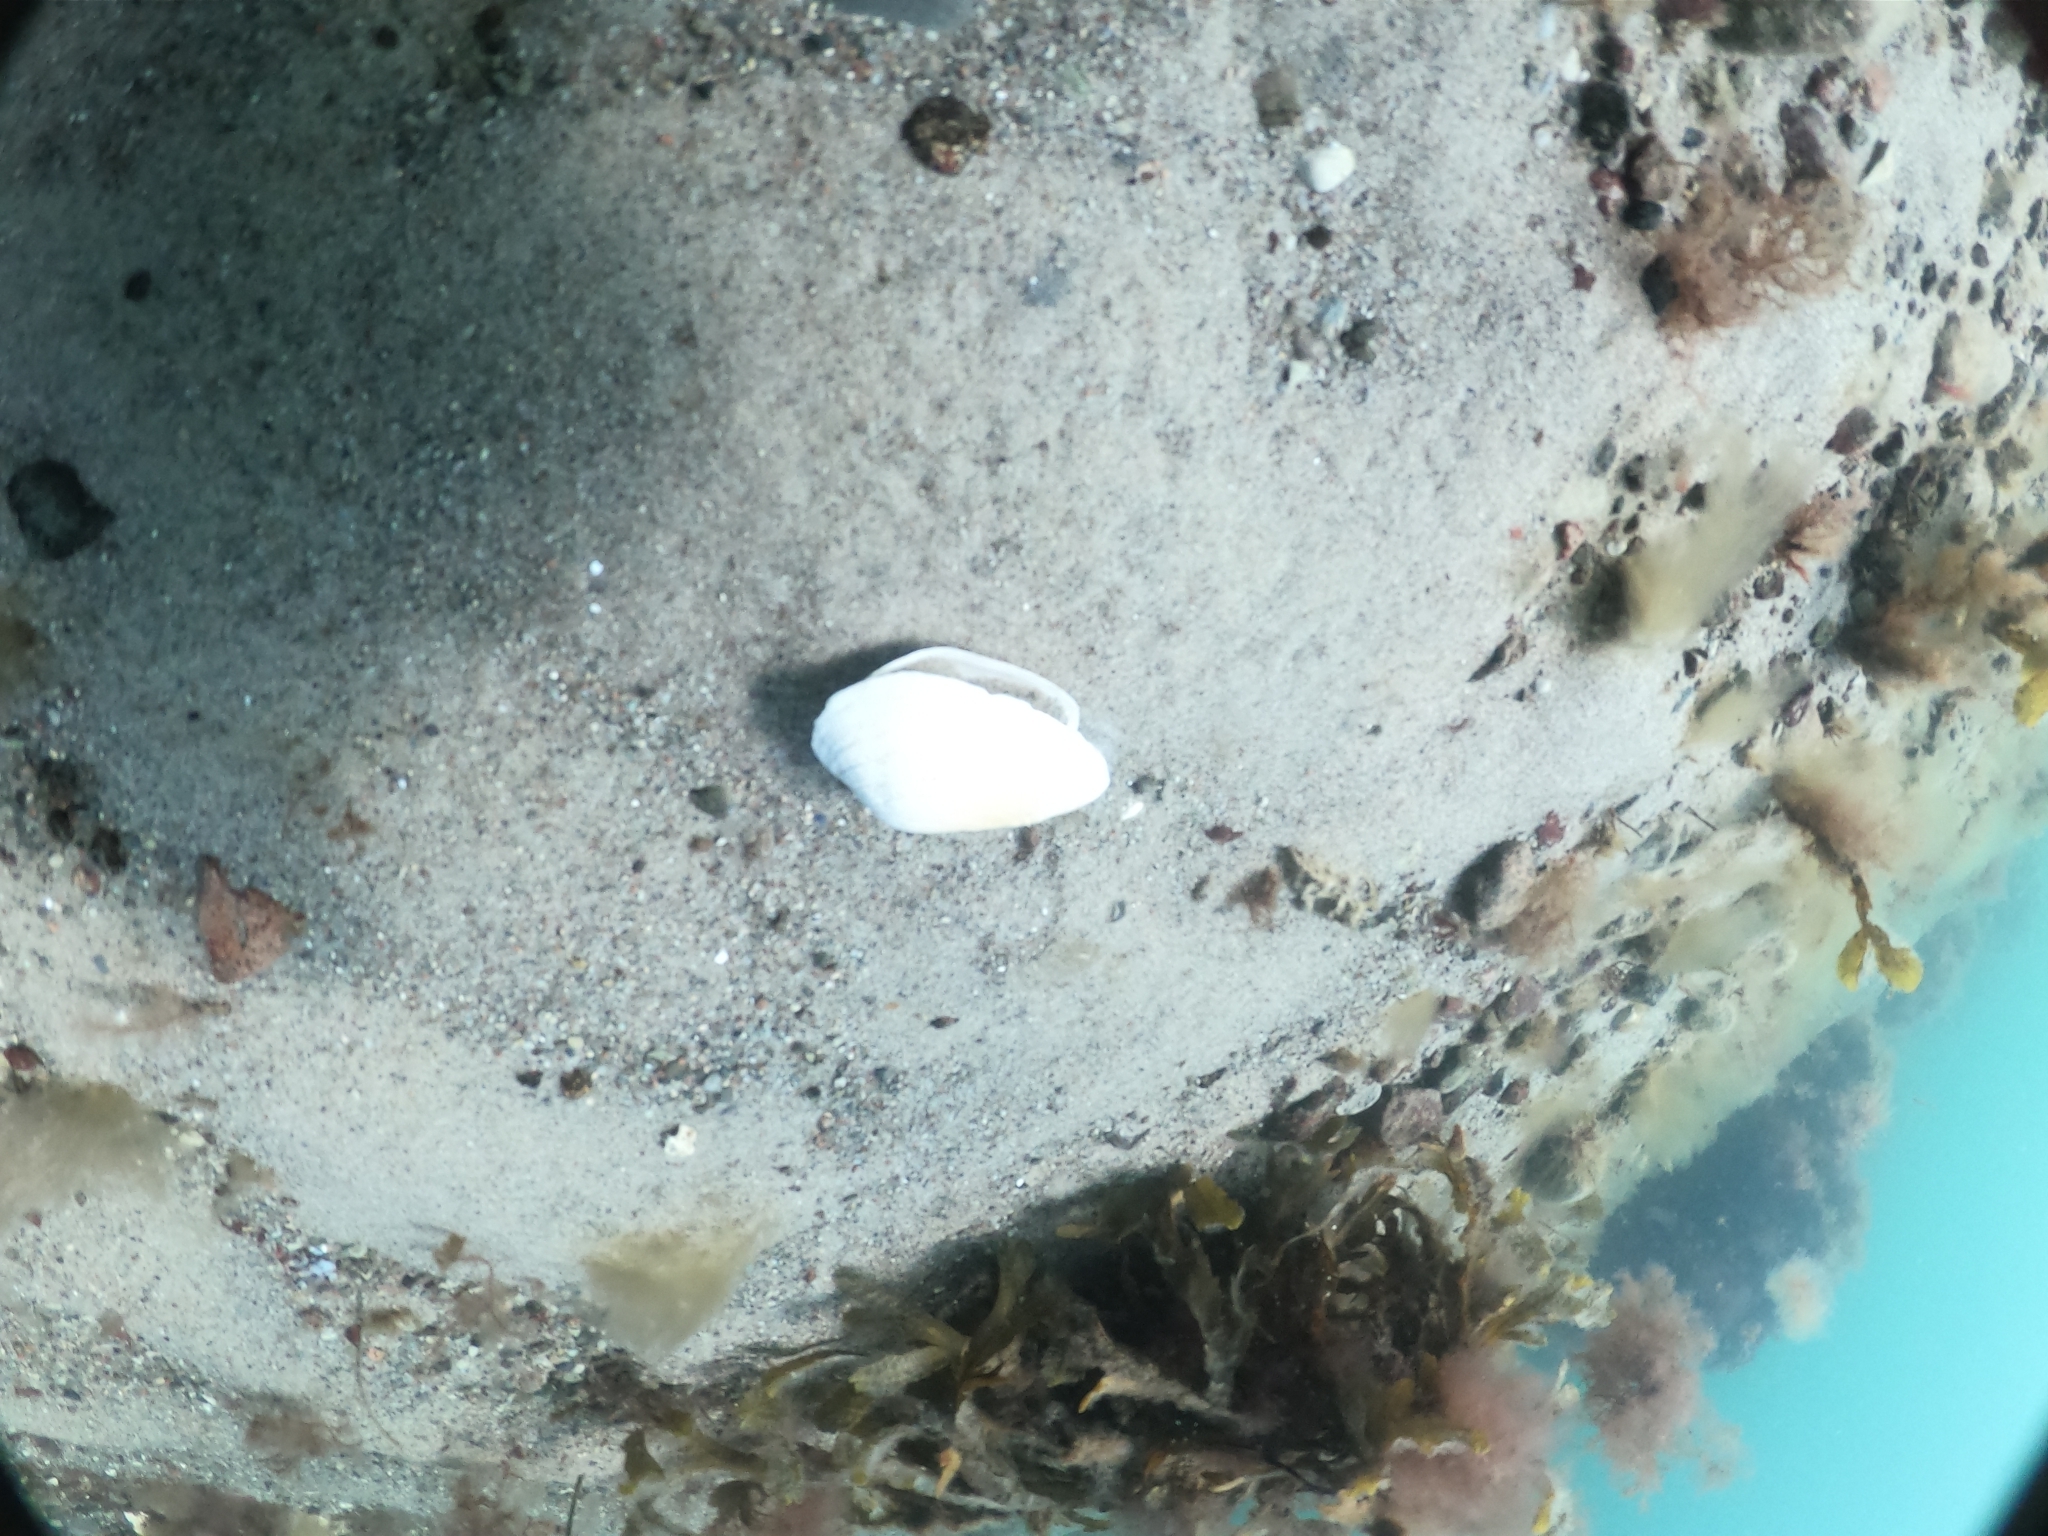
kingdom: Animalia
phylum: Mollusca
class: Bivalvia
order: Myida
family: Myidae
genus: Mya
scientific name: Mya arenaria
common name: Soft-shelled clam
